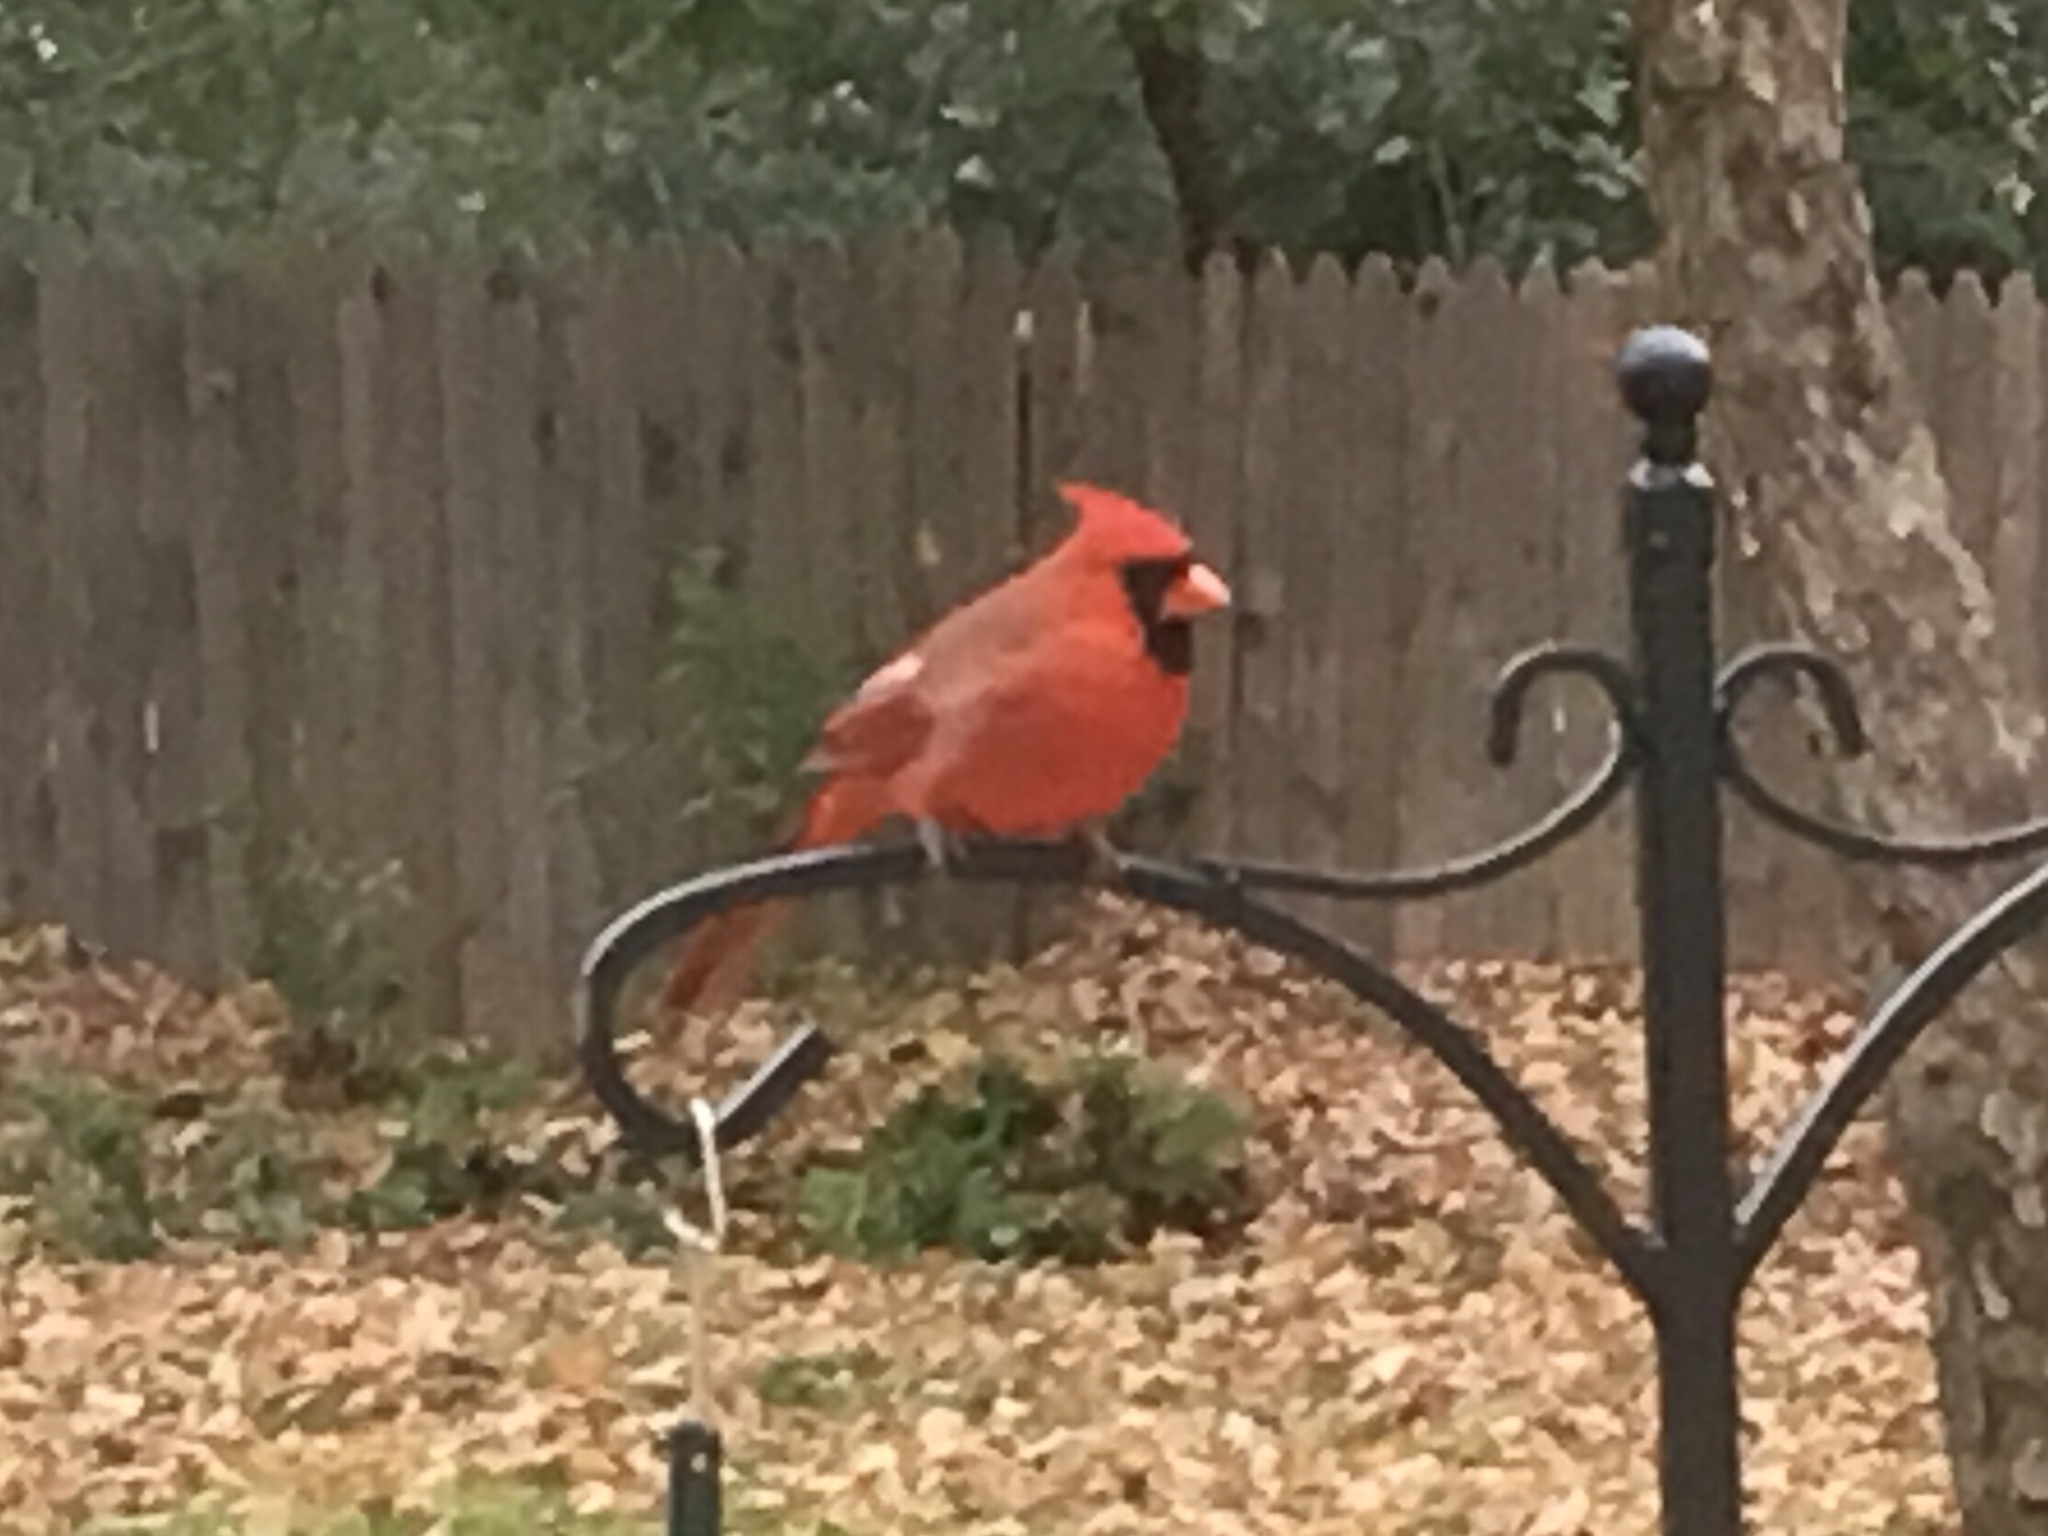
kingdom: Animalia
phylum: Chordata
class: Aves
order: Passeriformes
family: Cardinalidae
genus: Cardinalis
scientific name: Cardinalis cardinalis
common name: Northern cardinal
